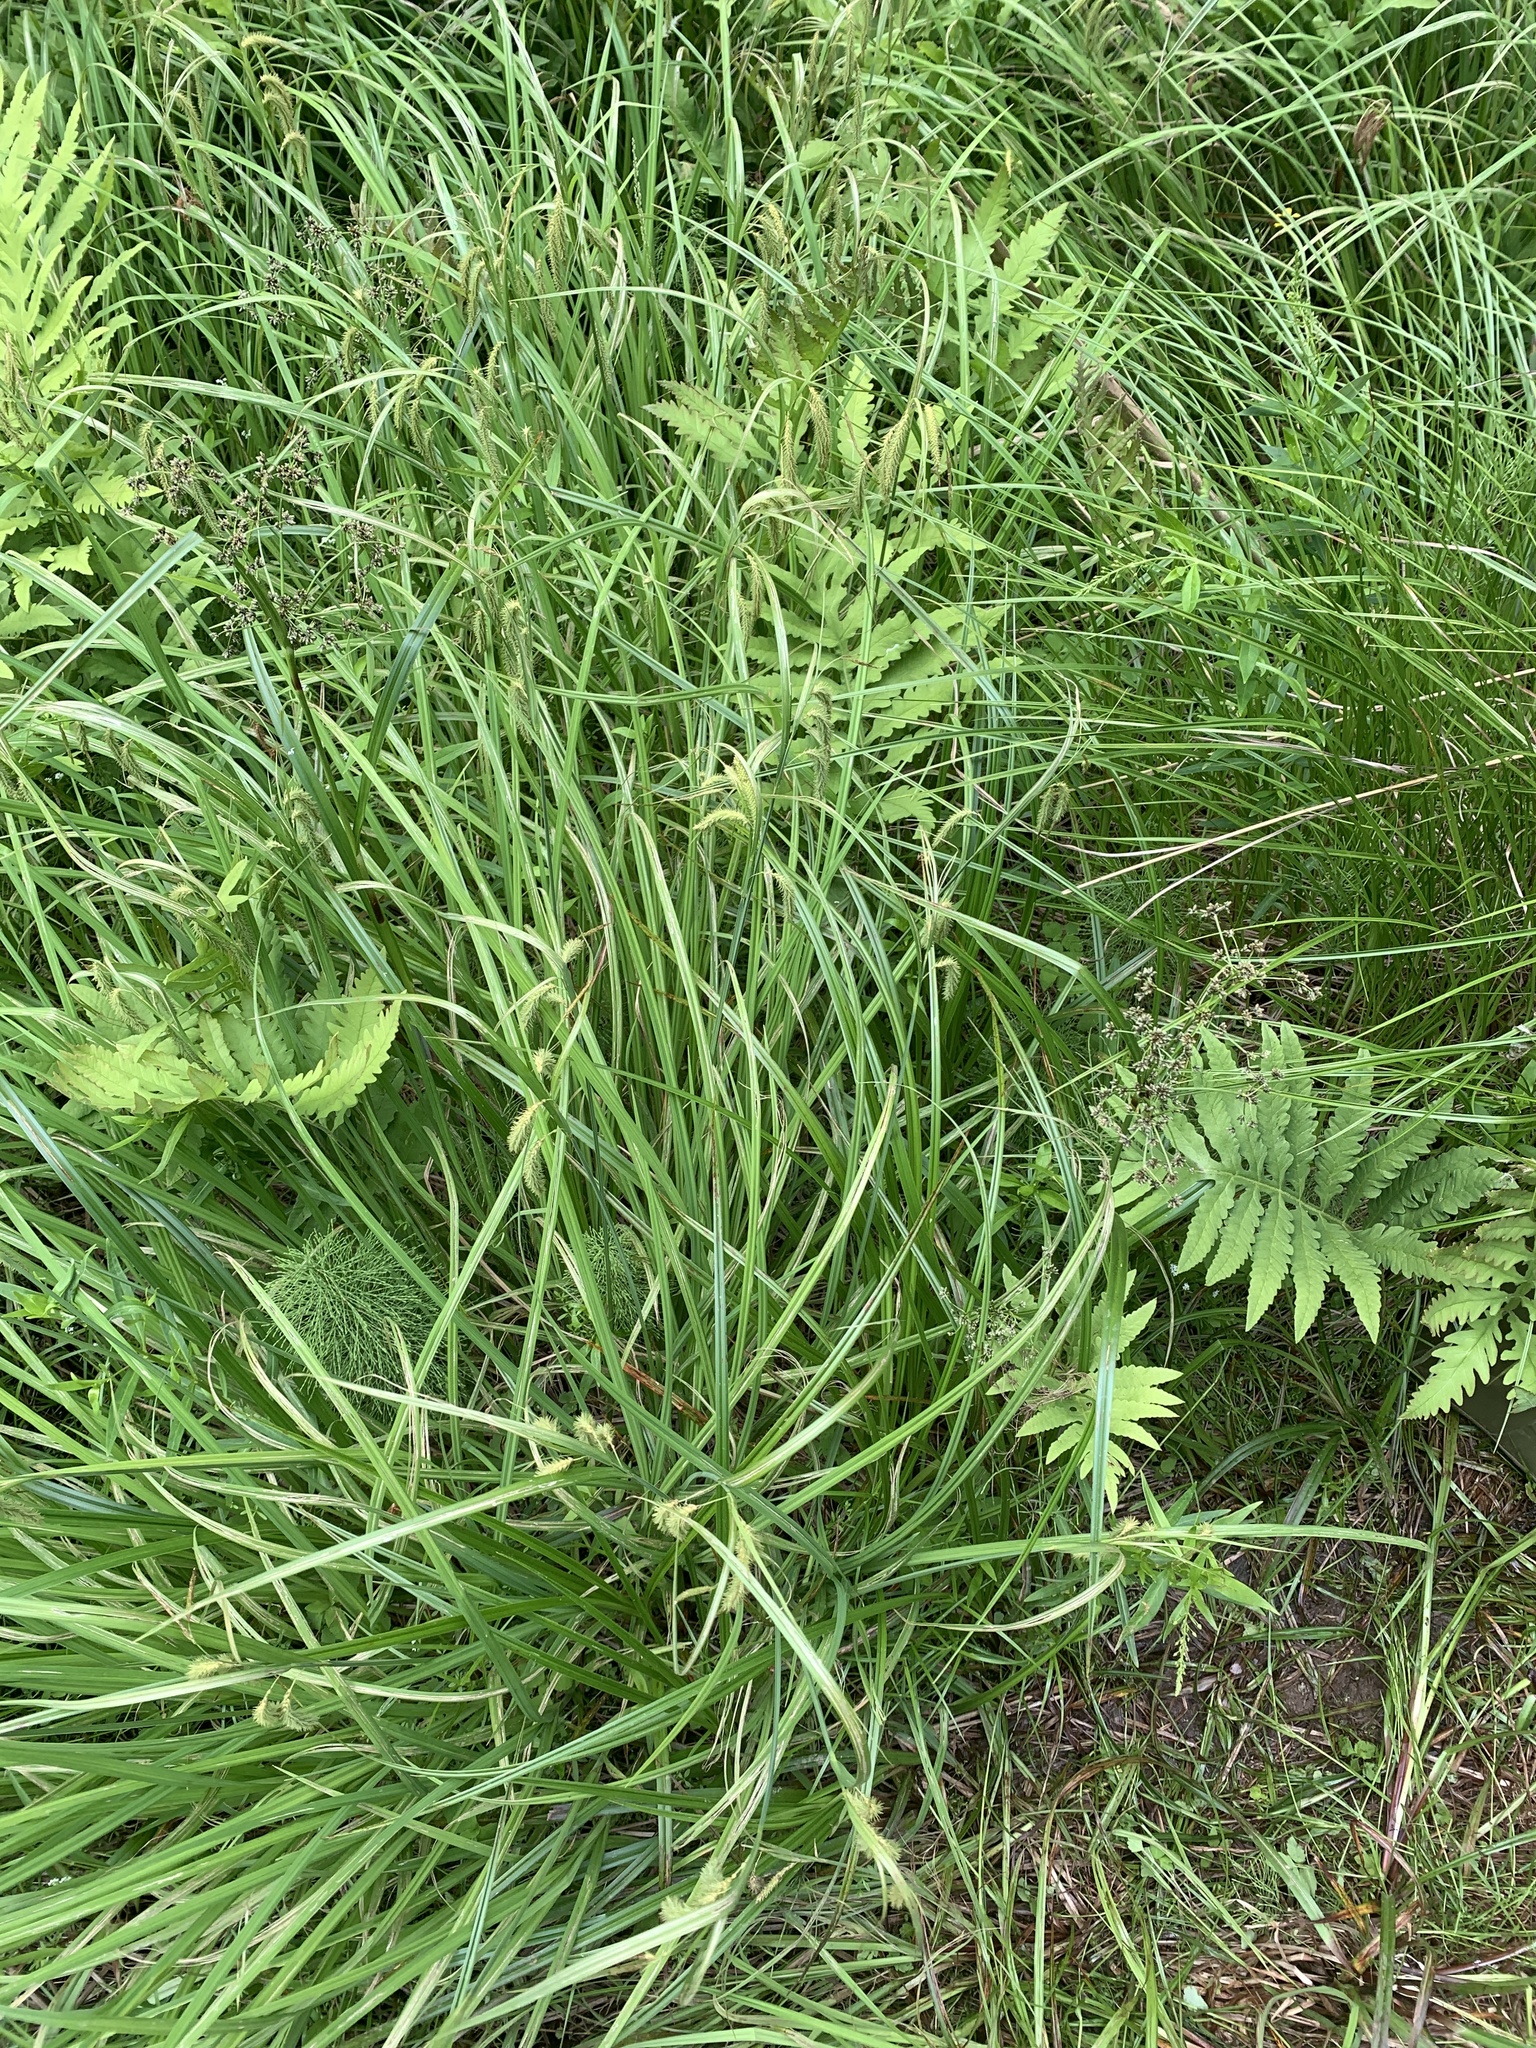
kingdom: Plantae
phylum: Tracheophyta
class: Liliopsida
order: Poales
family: Cyperaceae
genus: Carex
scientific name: Carex gynandra
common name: Nodding sedge
